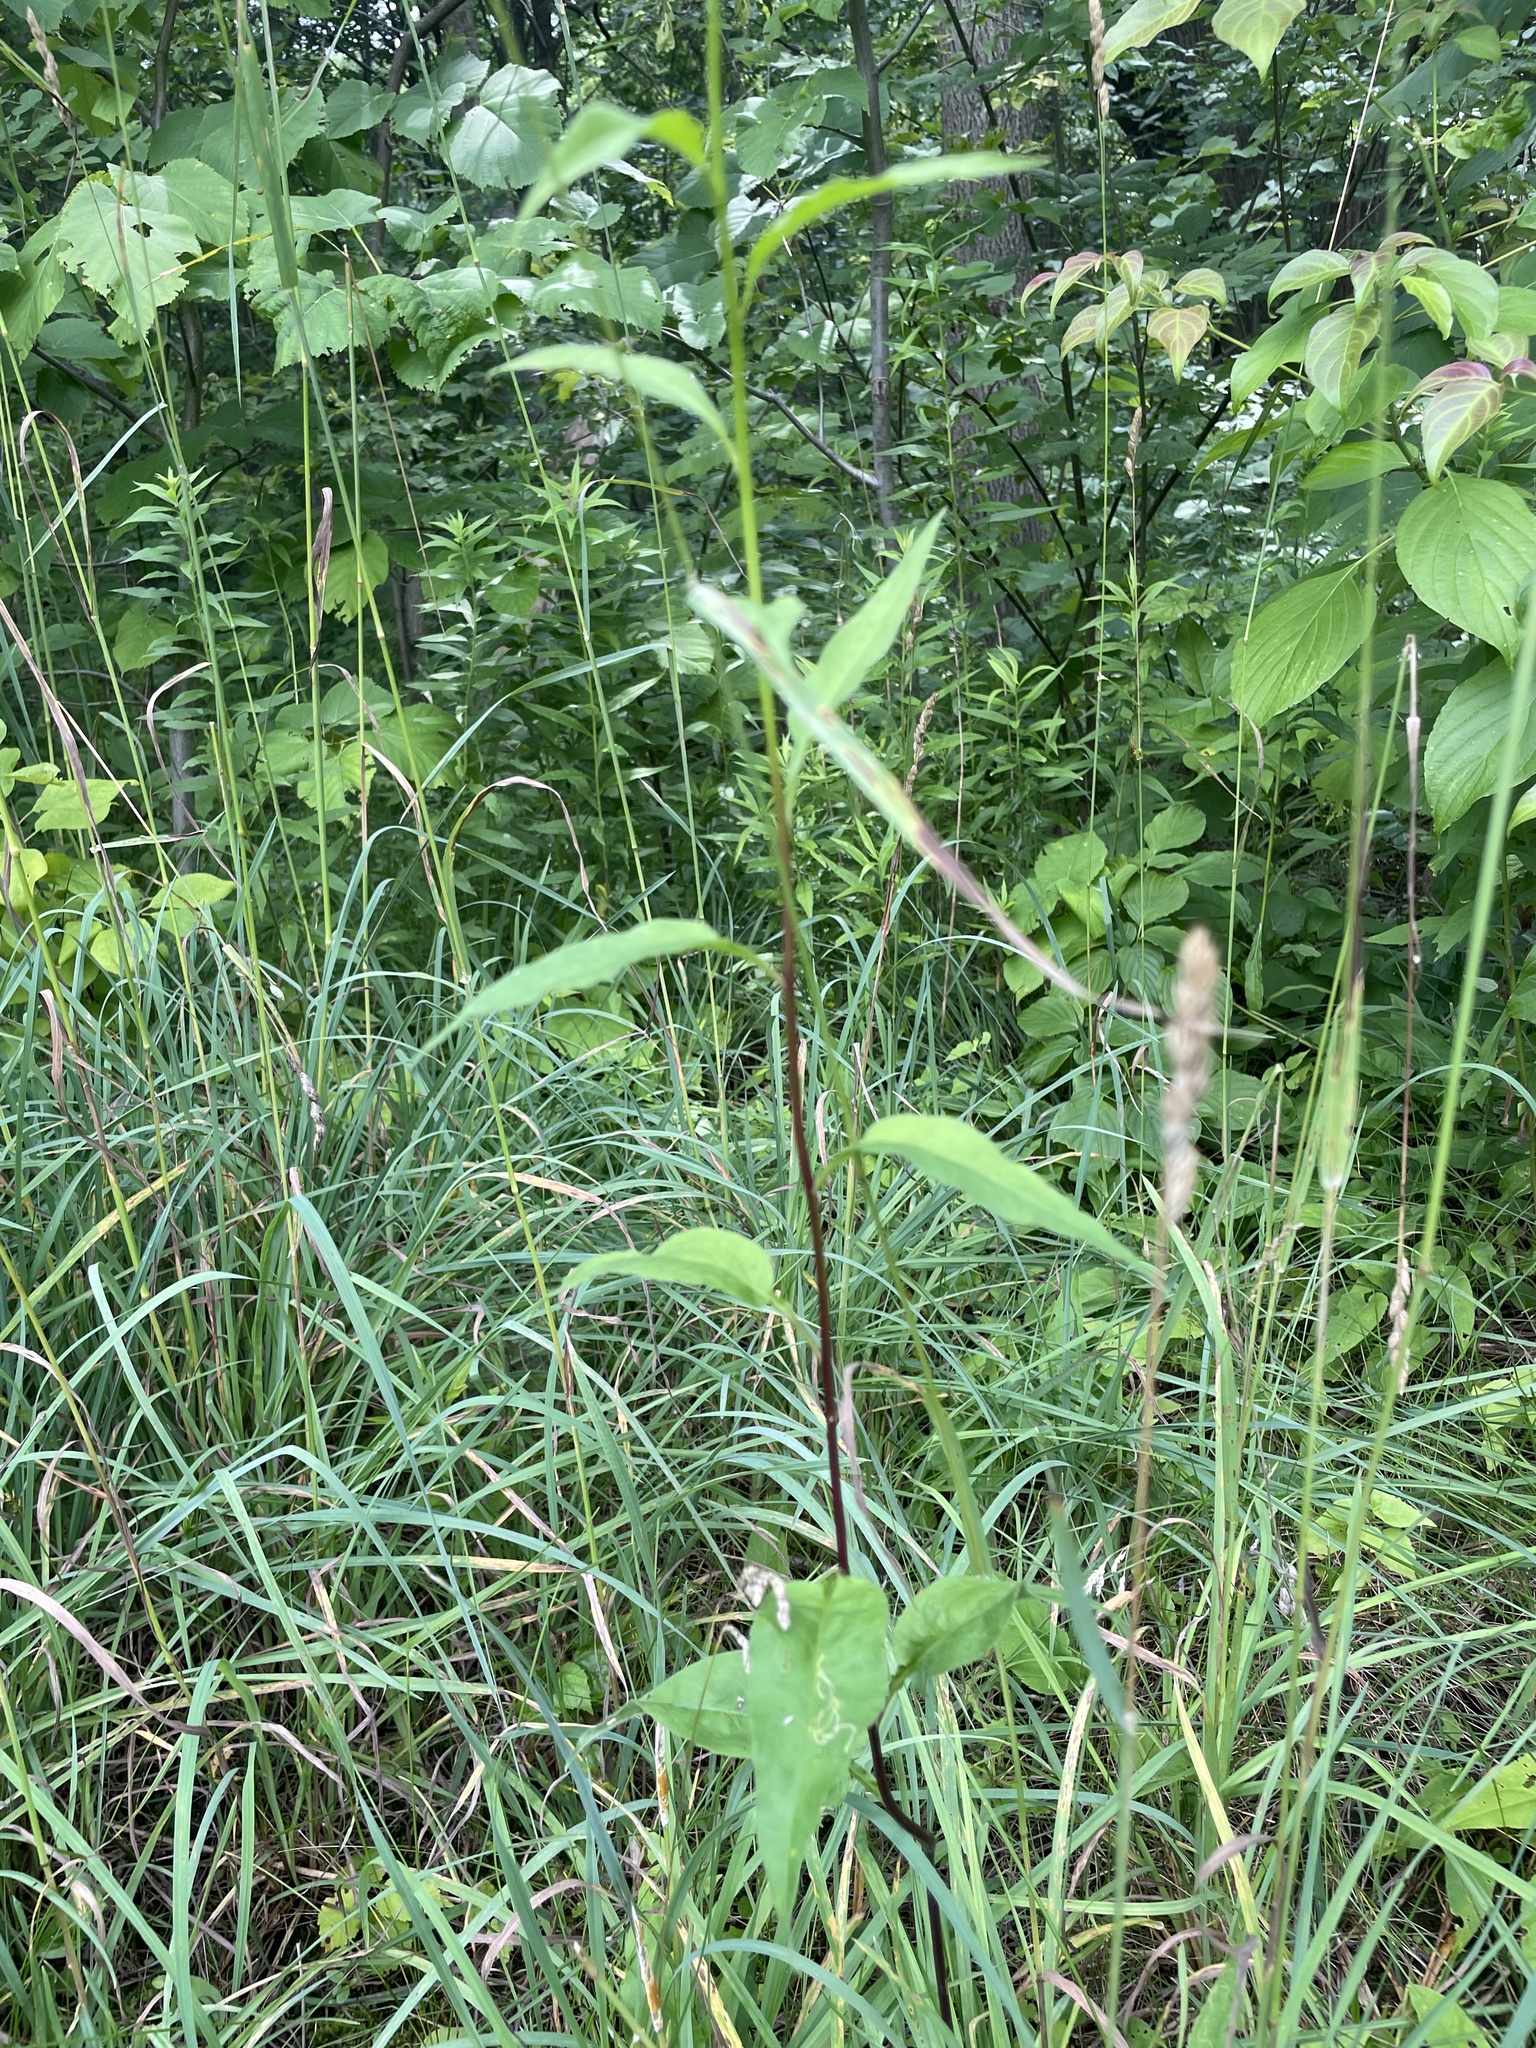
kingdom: Plantae
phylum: Tracheophyta
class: Magnoliopsida
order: Asterales
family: Asteraceae
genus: Symphyotrichum
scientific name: Symphyotrichum urophyllum
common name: Arrow-leaved aster
